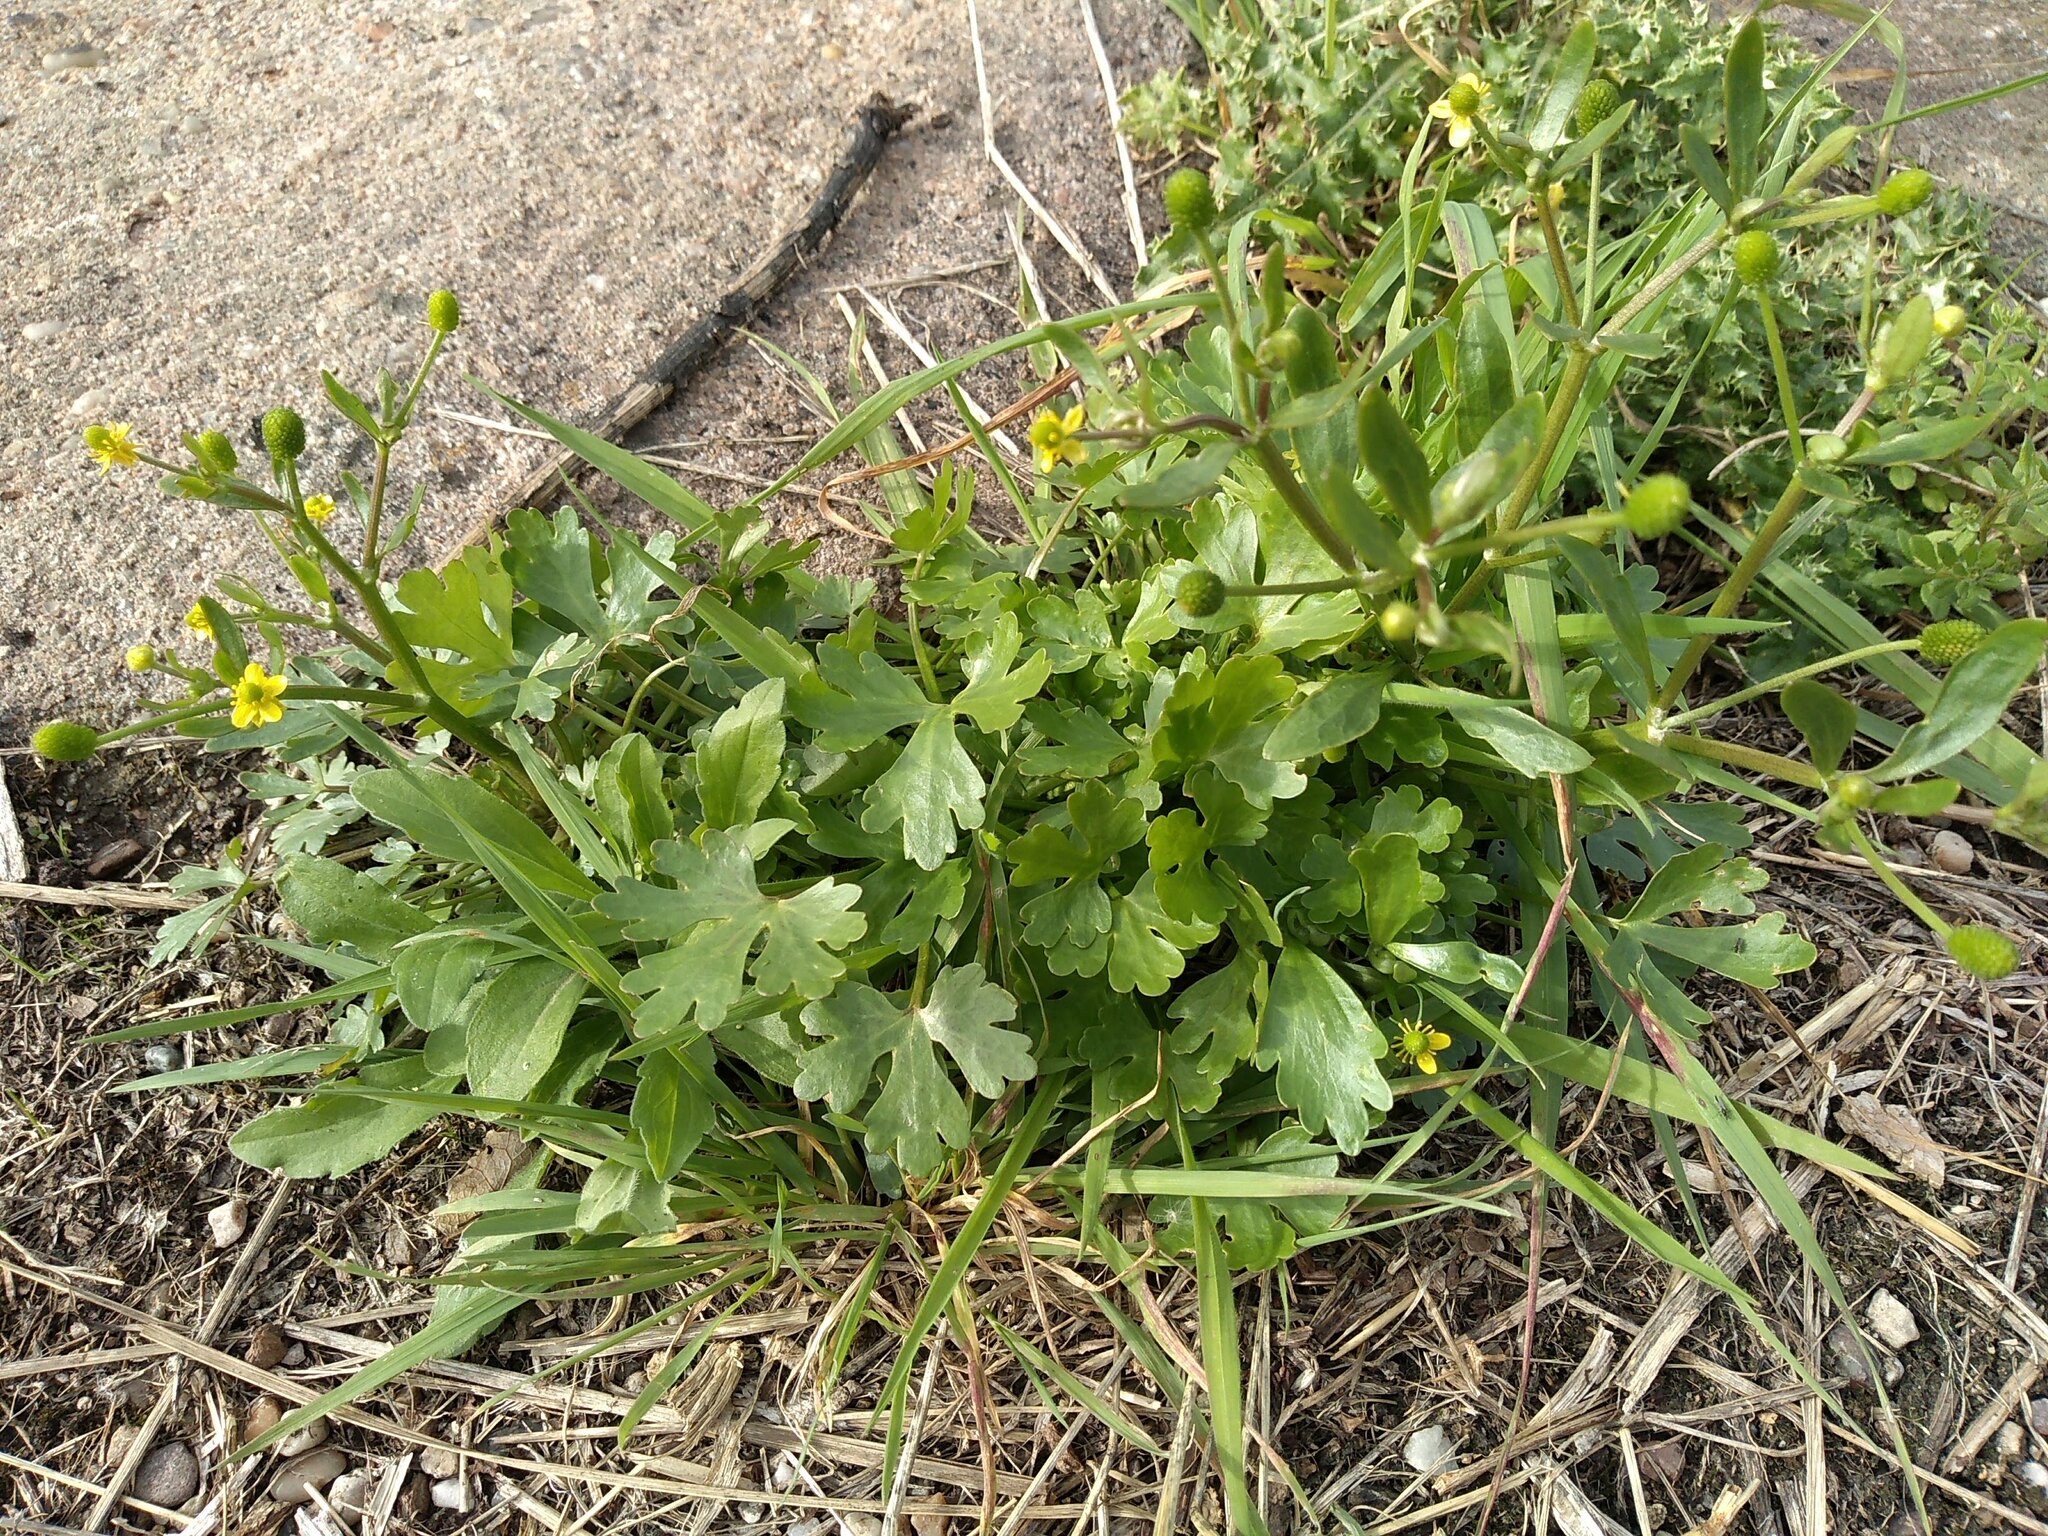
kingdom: Plantae
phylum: Tracheophyta
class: Magnoliopsida
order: Ranunculales
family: Ranunculaceae
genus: Ranunculus
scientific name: Ranunculus sceleratus
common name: Celery-leaved buttercup
